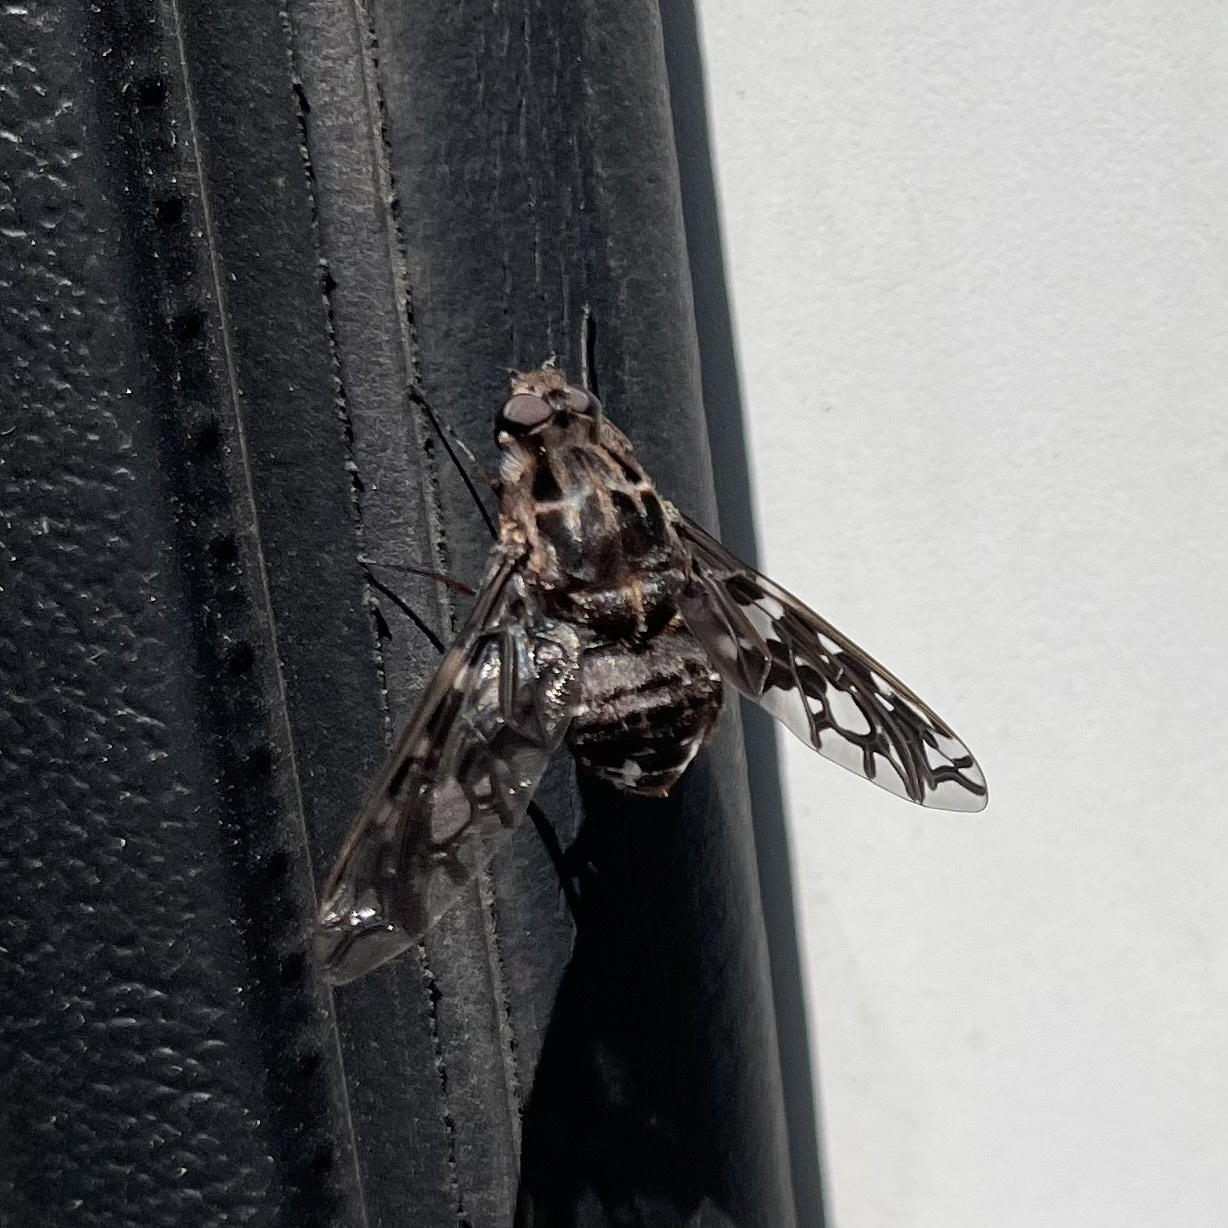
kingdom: Animalia
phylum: Arthropoda
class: Insecta
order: Diptera
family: Bombyliidae
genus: Xenox
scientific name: Xenox tigrinus
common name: Tiger bee fly
